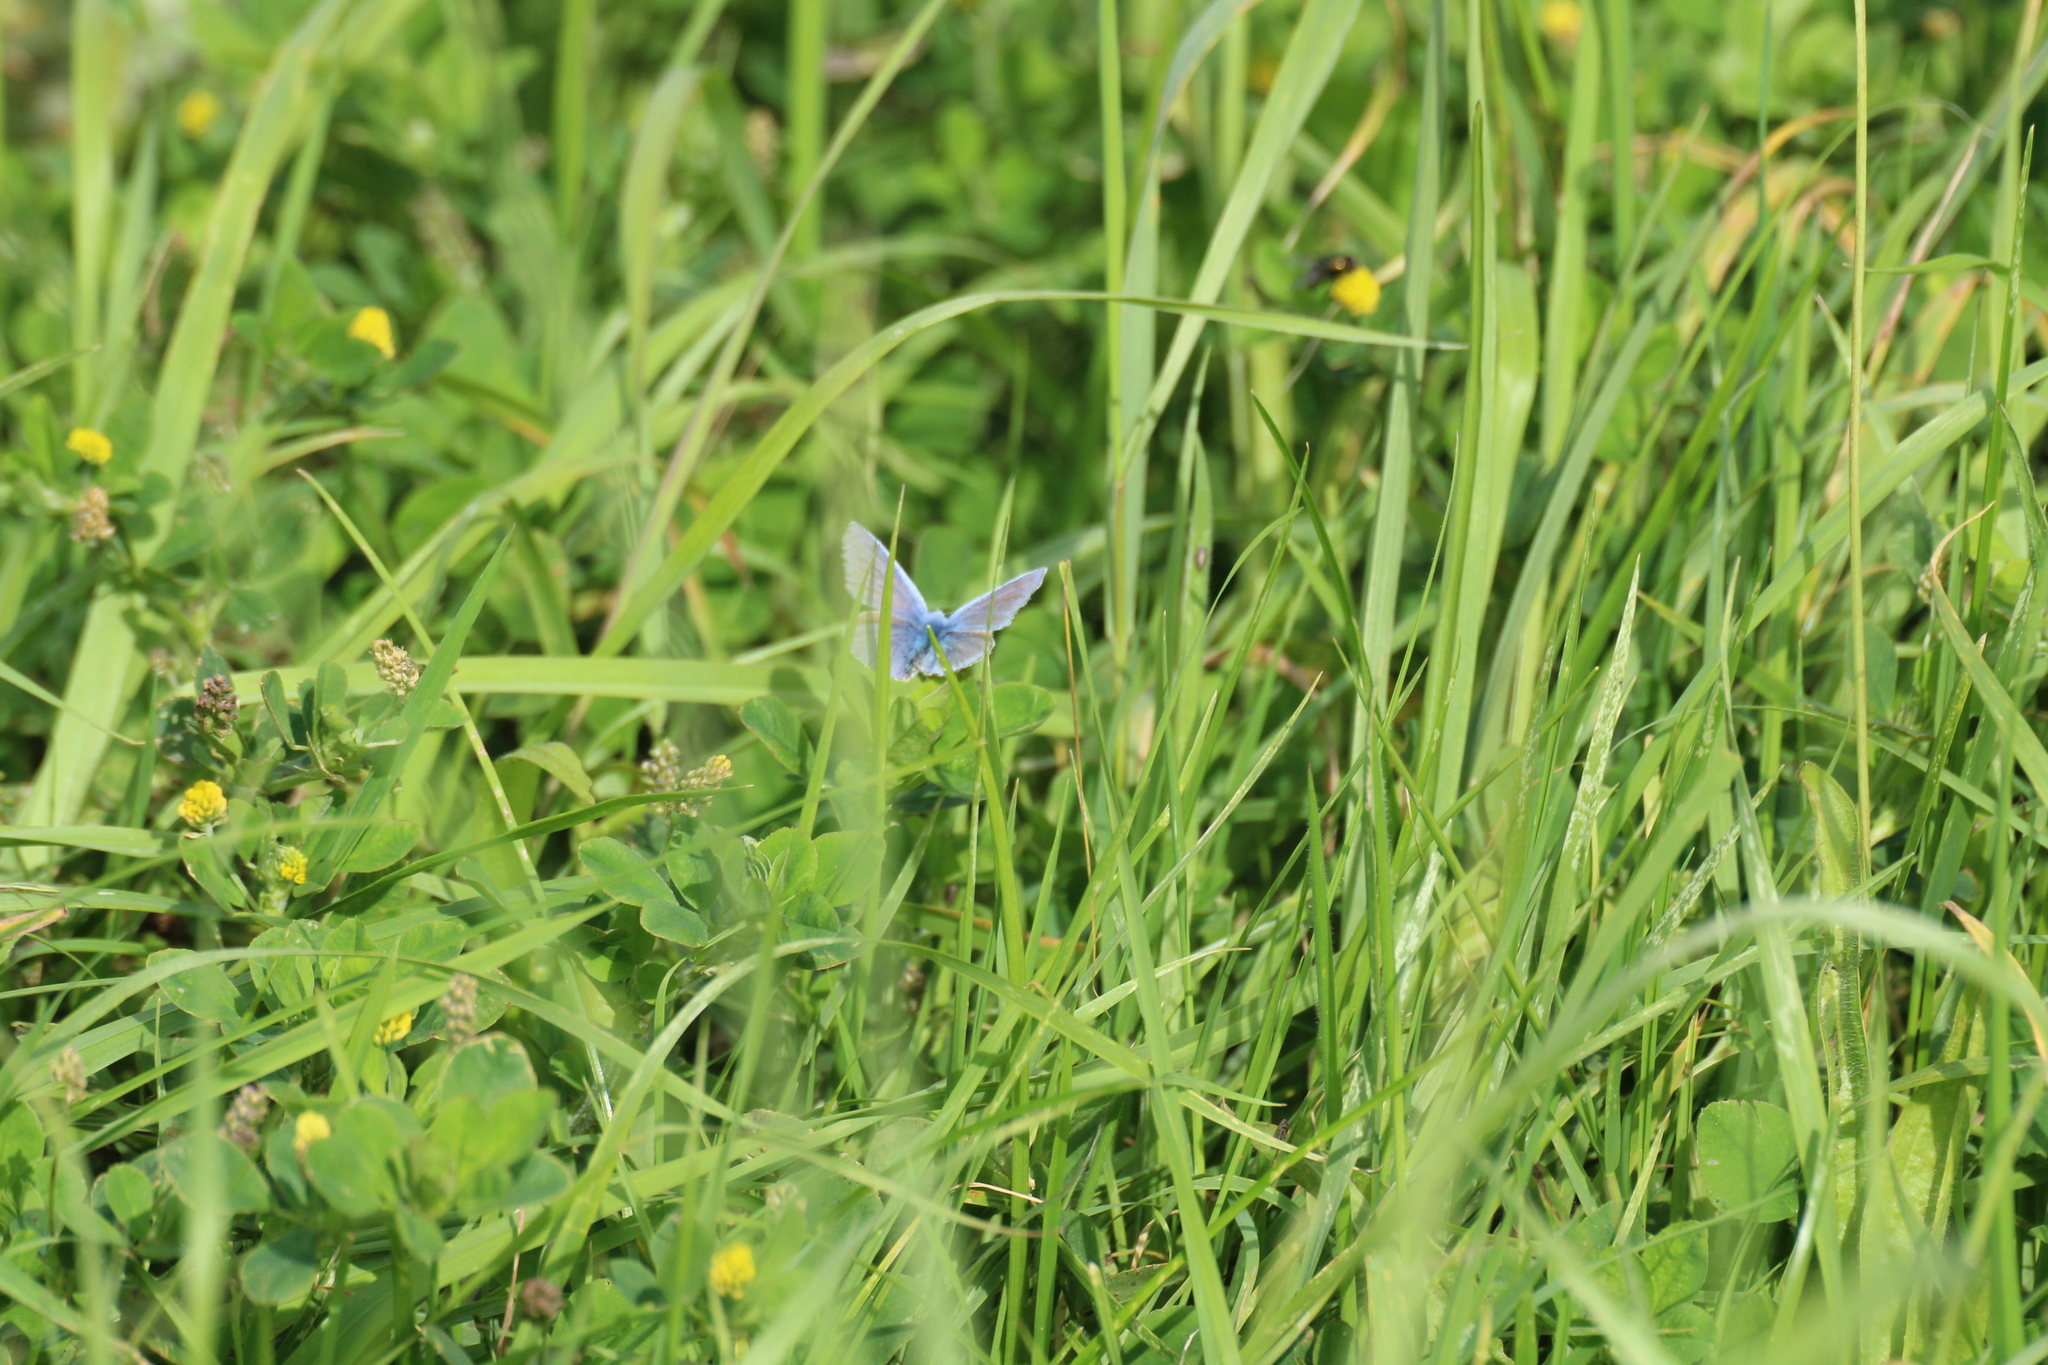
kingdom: Animalia
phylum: Arthropoda
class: Insecta
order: Lepidoptera
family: Lycaenidae
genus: Polyommatus
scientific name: Polyommatus icarus
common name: Common blue
